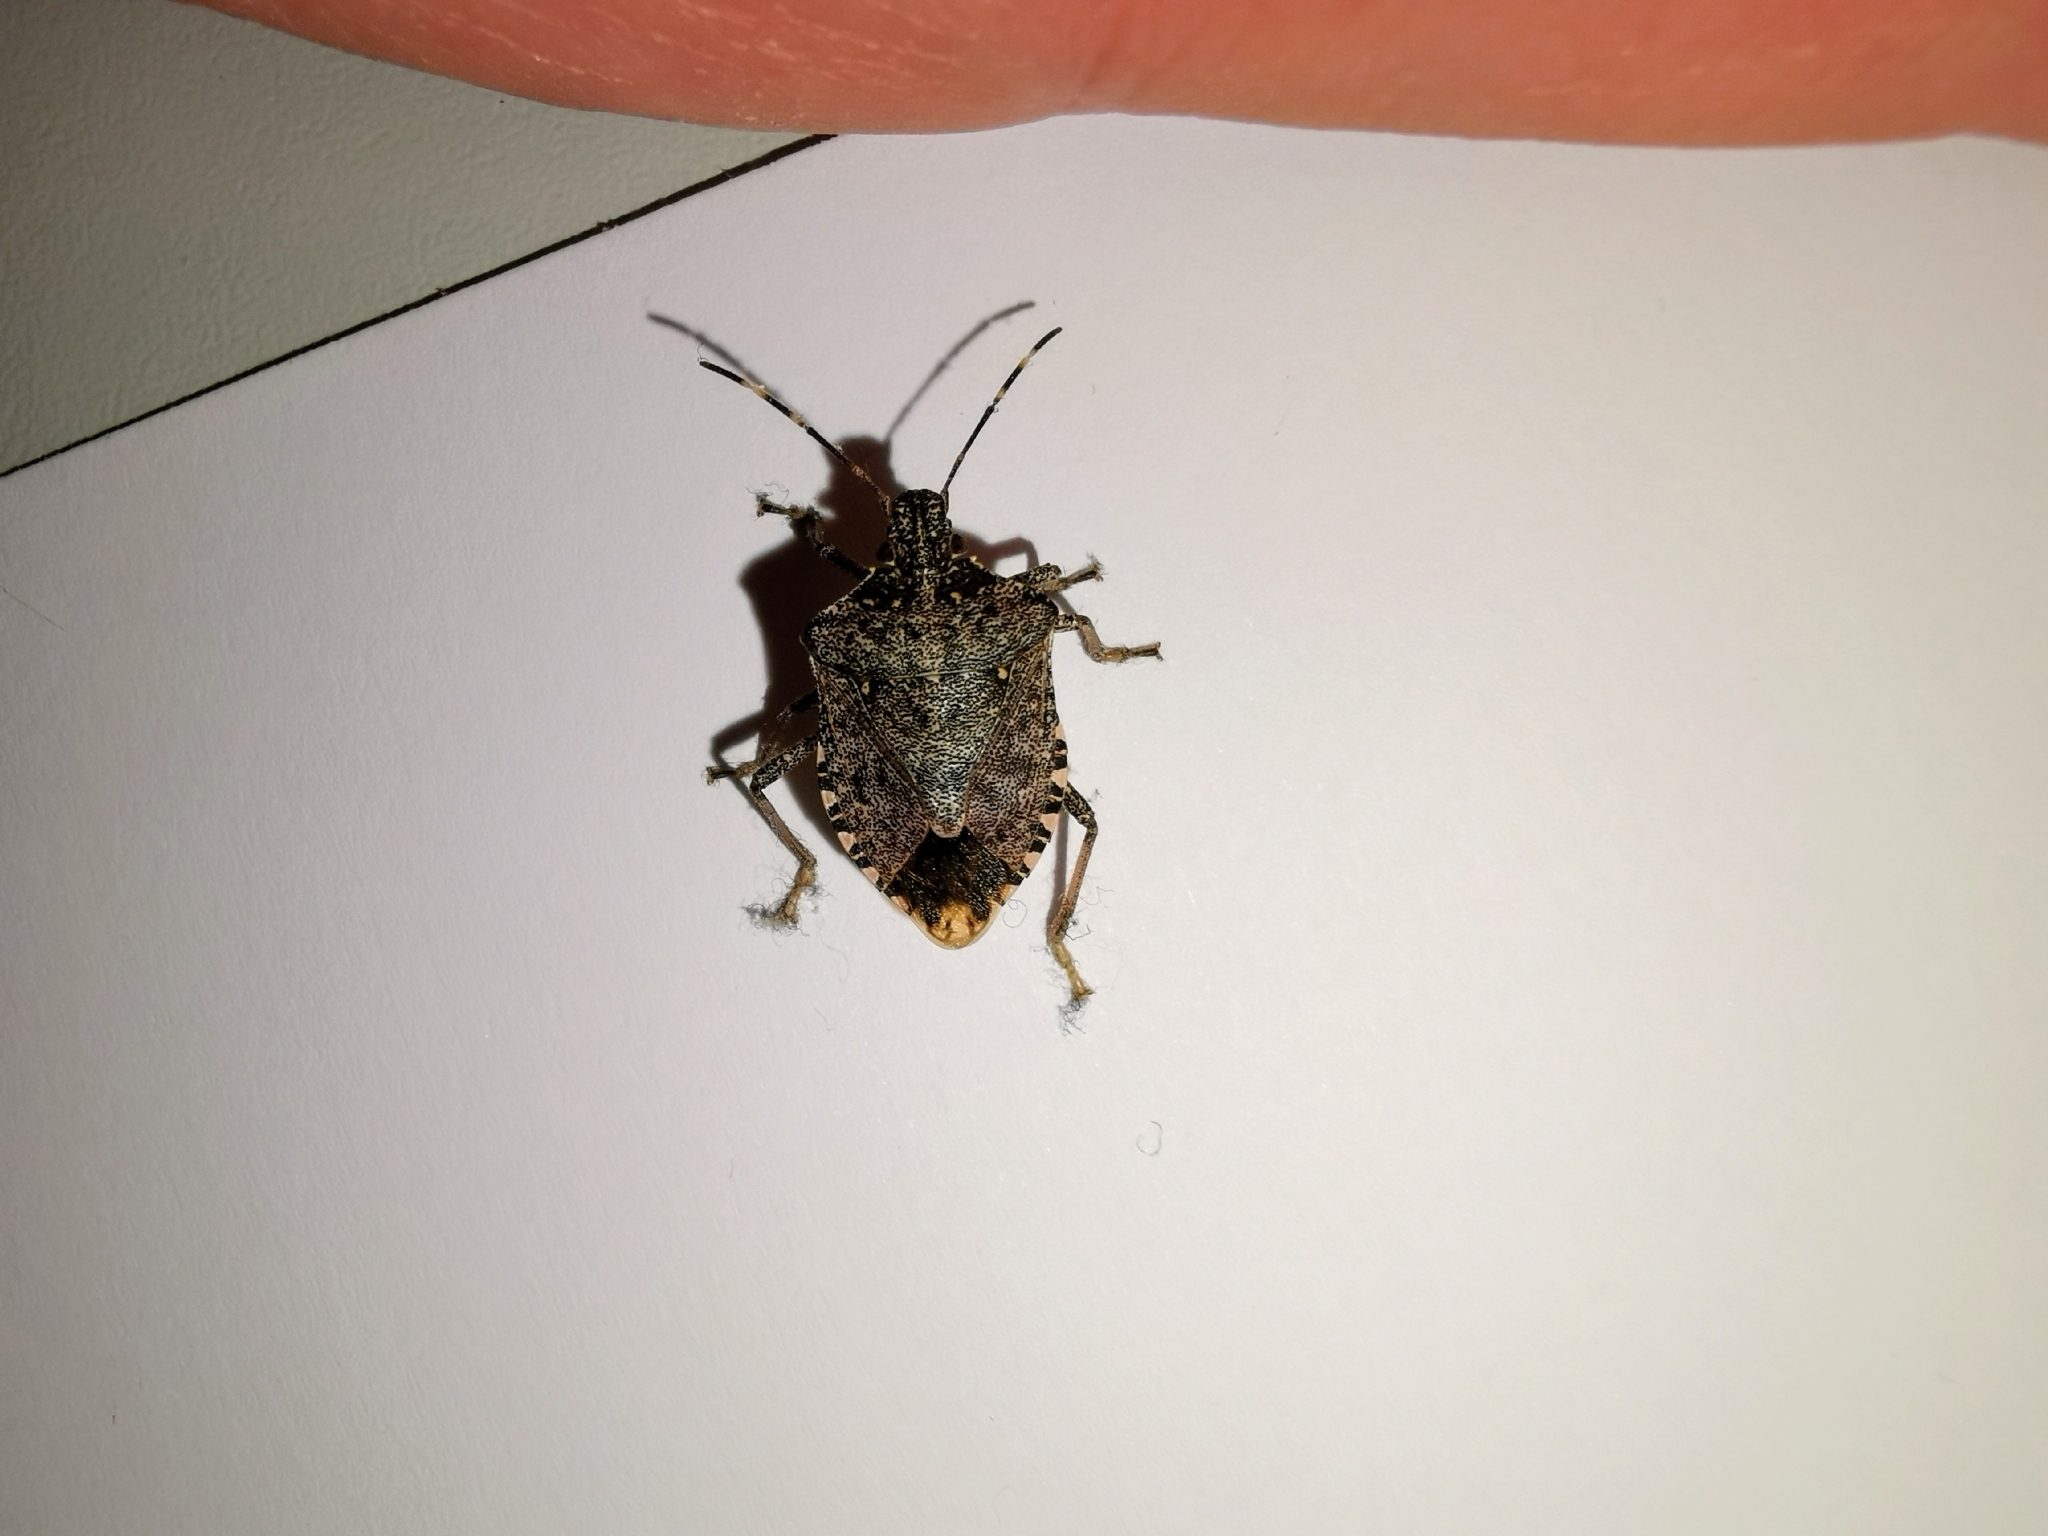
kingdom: Animalia
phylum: Arthropoda
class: Insecta
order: Hemiptera
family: Pentatomidae
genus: Halyomorpha
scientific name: Halyomorpha halys
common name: Brown marmorated stink bug
